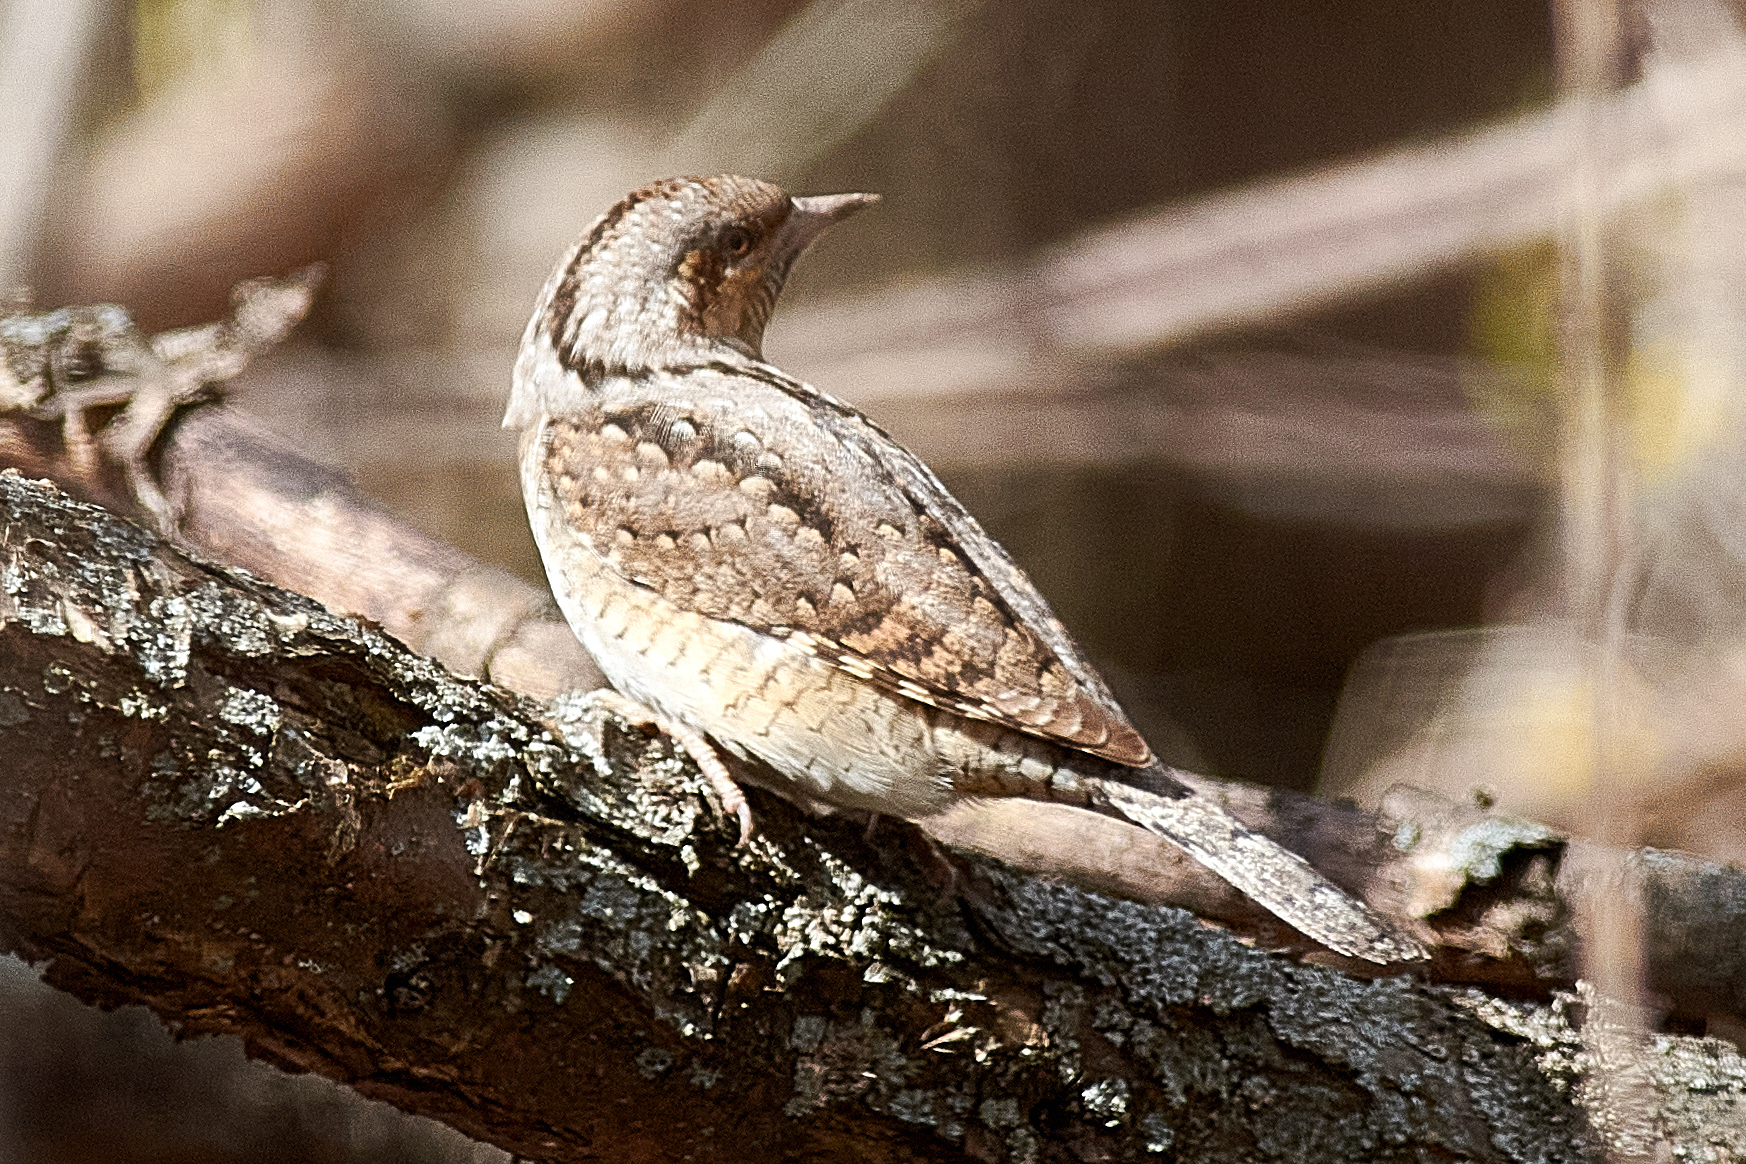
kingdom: Animalia
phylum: Chordata
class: Aves
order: Piciformes
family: Picidae
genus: Jynx
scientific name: Jynx torquilla
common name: Eurasian wryneck
